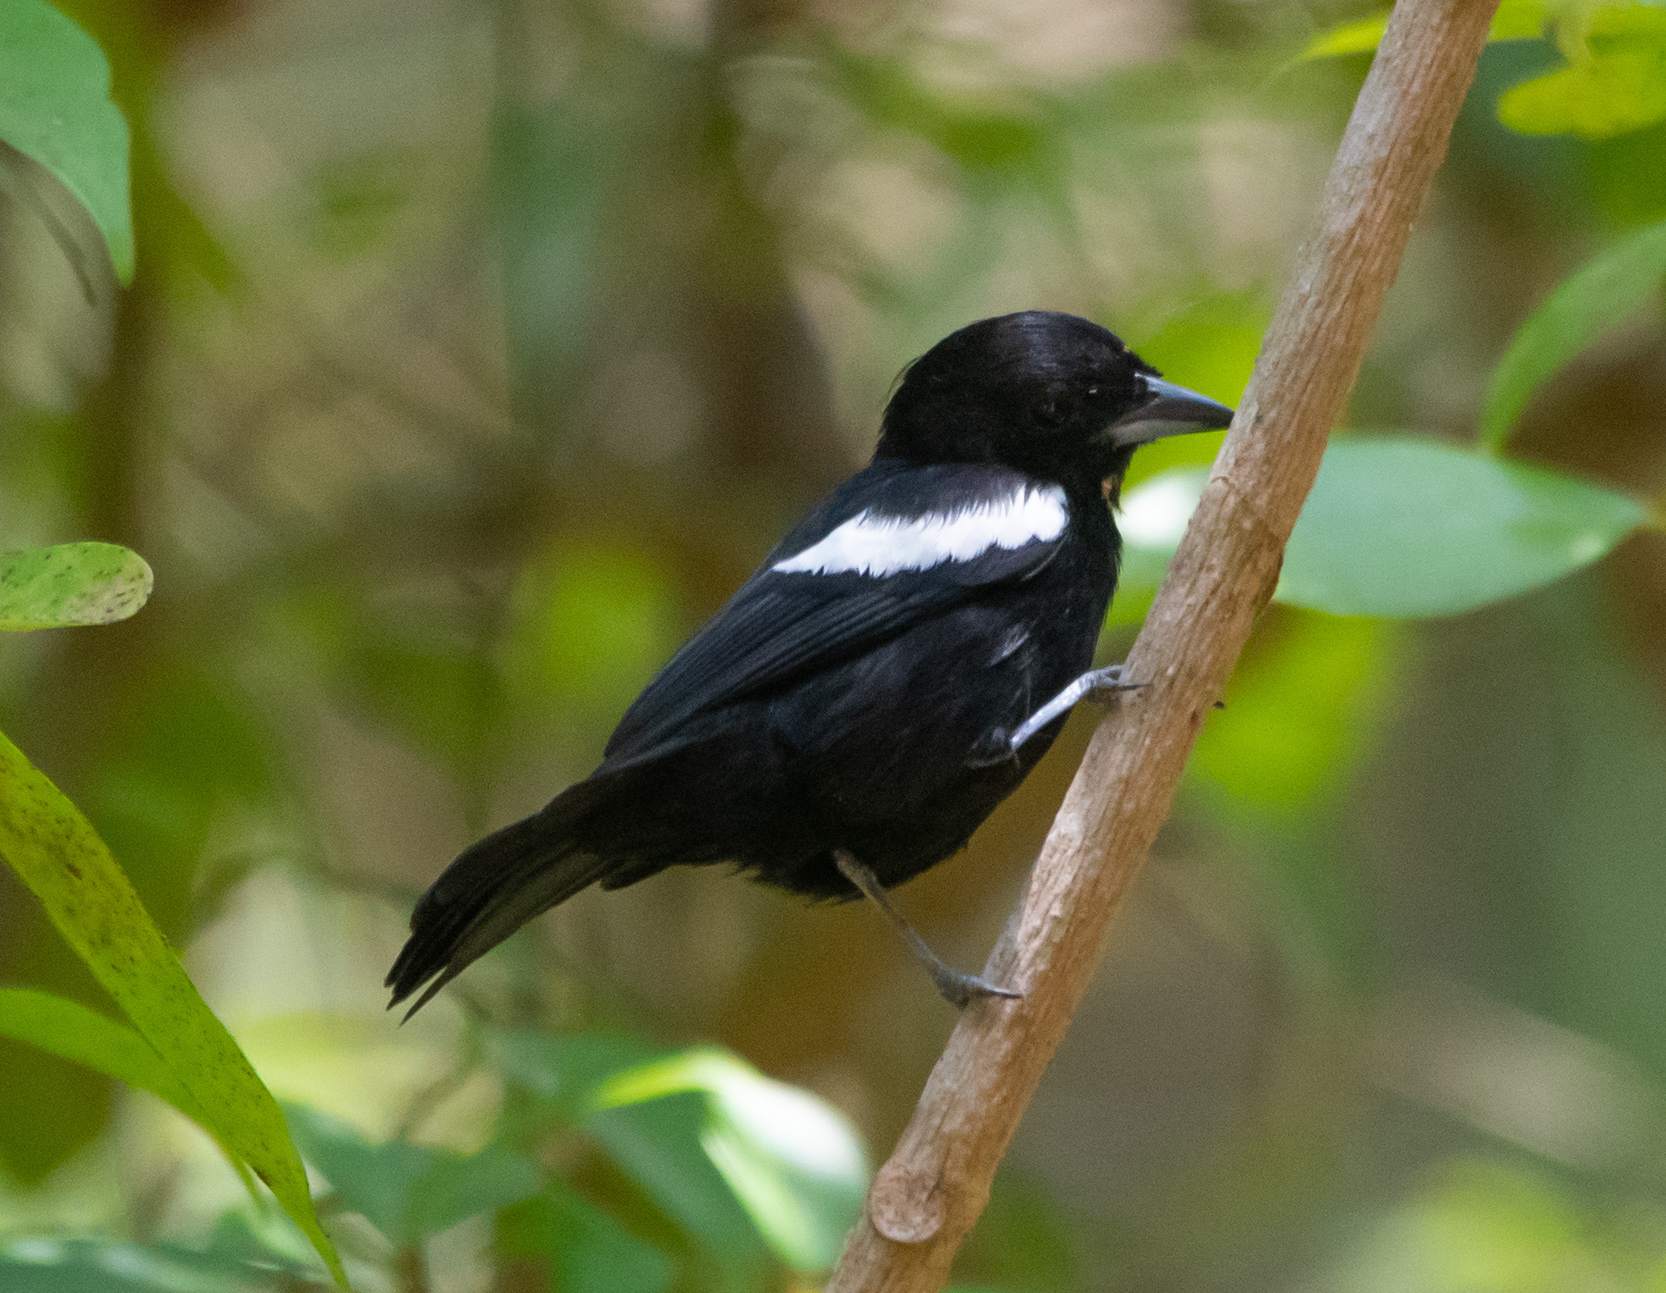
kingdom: Animalia
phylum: Chordata
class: Aves
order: Passeriformes
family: Thraupidae
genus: Loriotus
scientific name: Loriotus luctuosus
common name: White-shouldered tanager
